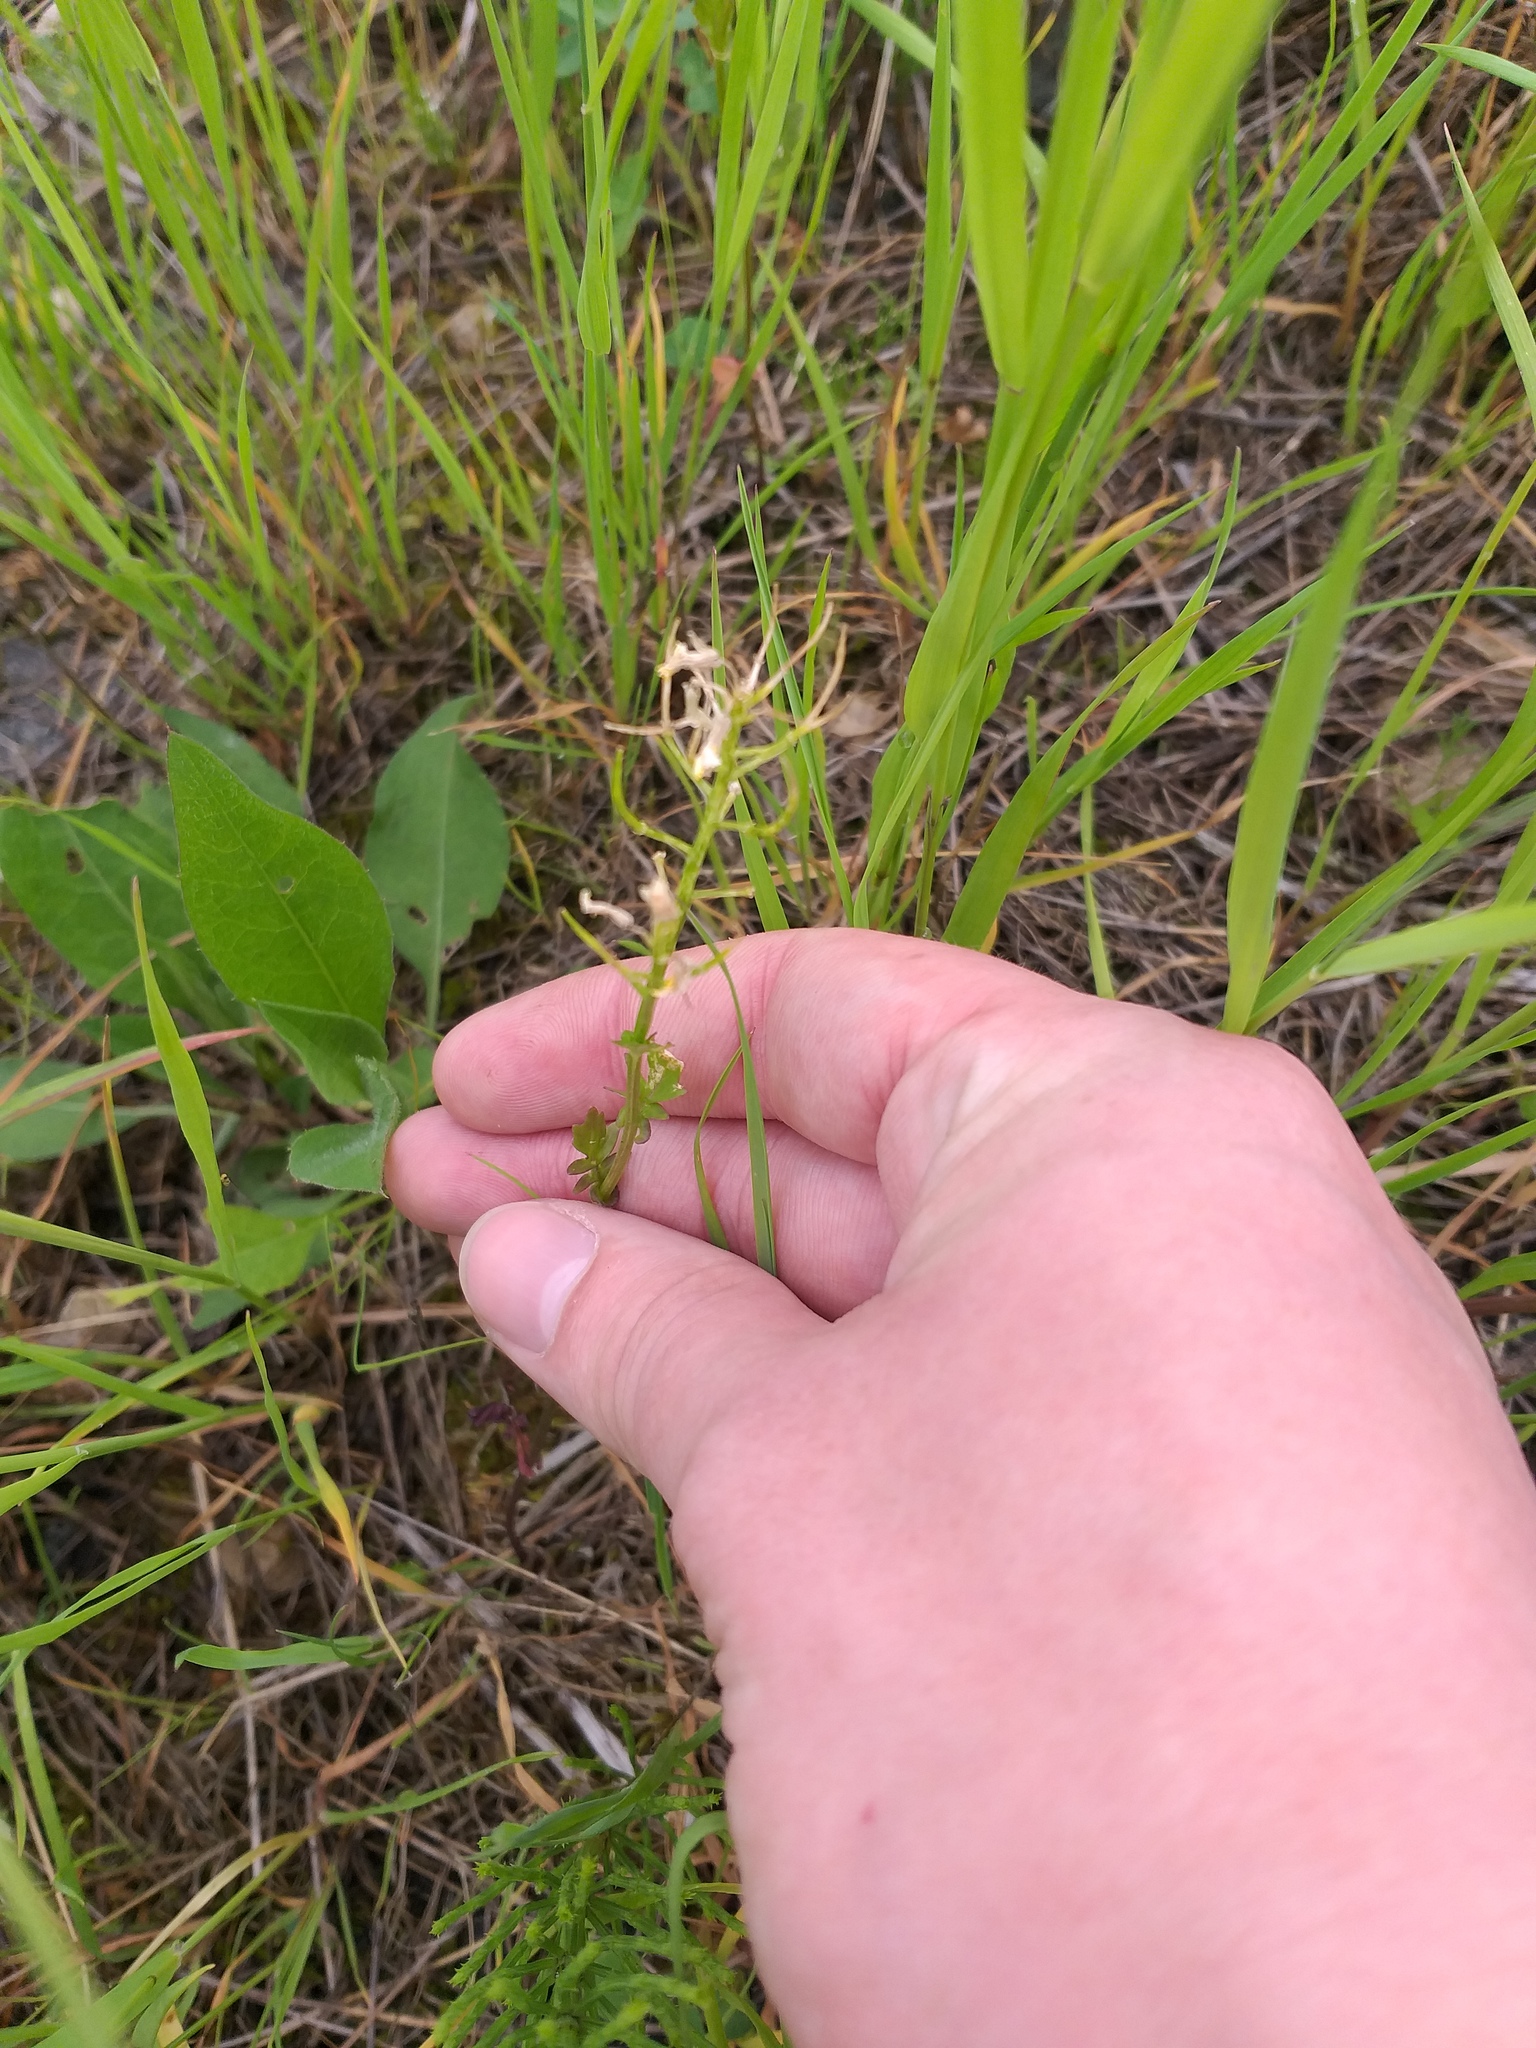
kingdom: Plantae
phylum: Tracheophyta
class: Magnoliopsida
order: Brassicales
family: Brassicaceae
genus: Barbarea
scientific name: Barbarea vulgaris
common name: Cressy-greens
